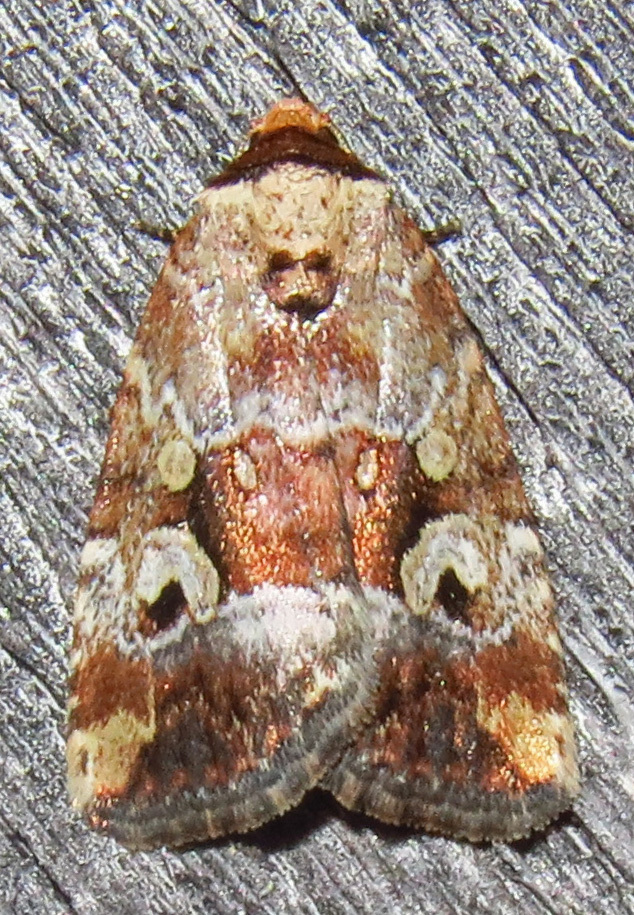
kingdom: Animalia
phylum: Arthropoda
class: Insecta
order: Lepidoptera
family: Noctuidae
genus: Elaphria
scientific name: Elaphria alapallida
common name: Pale-winged midget
